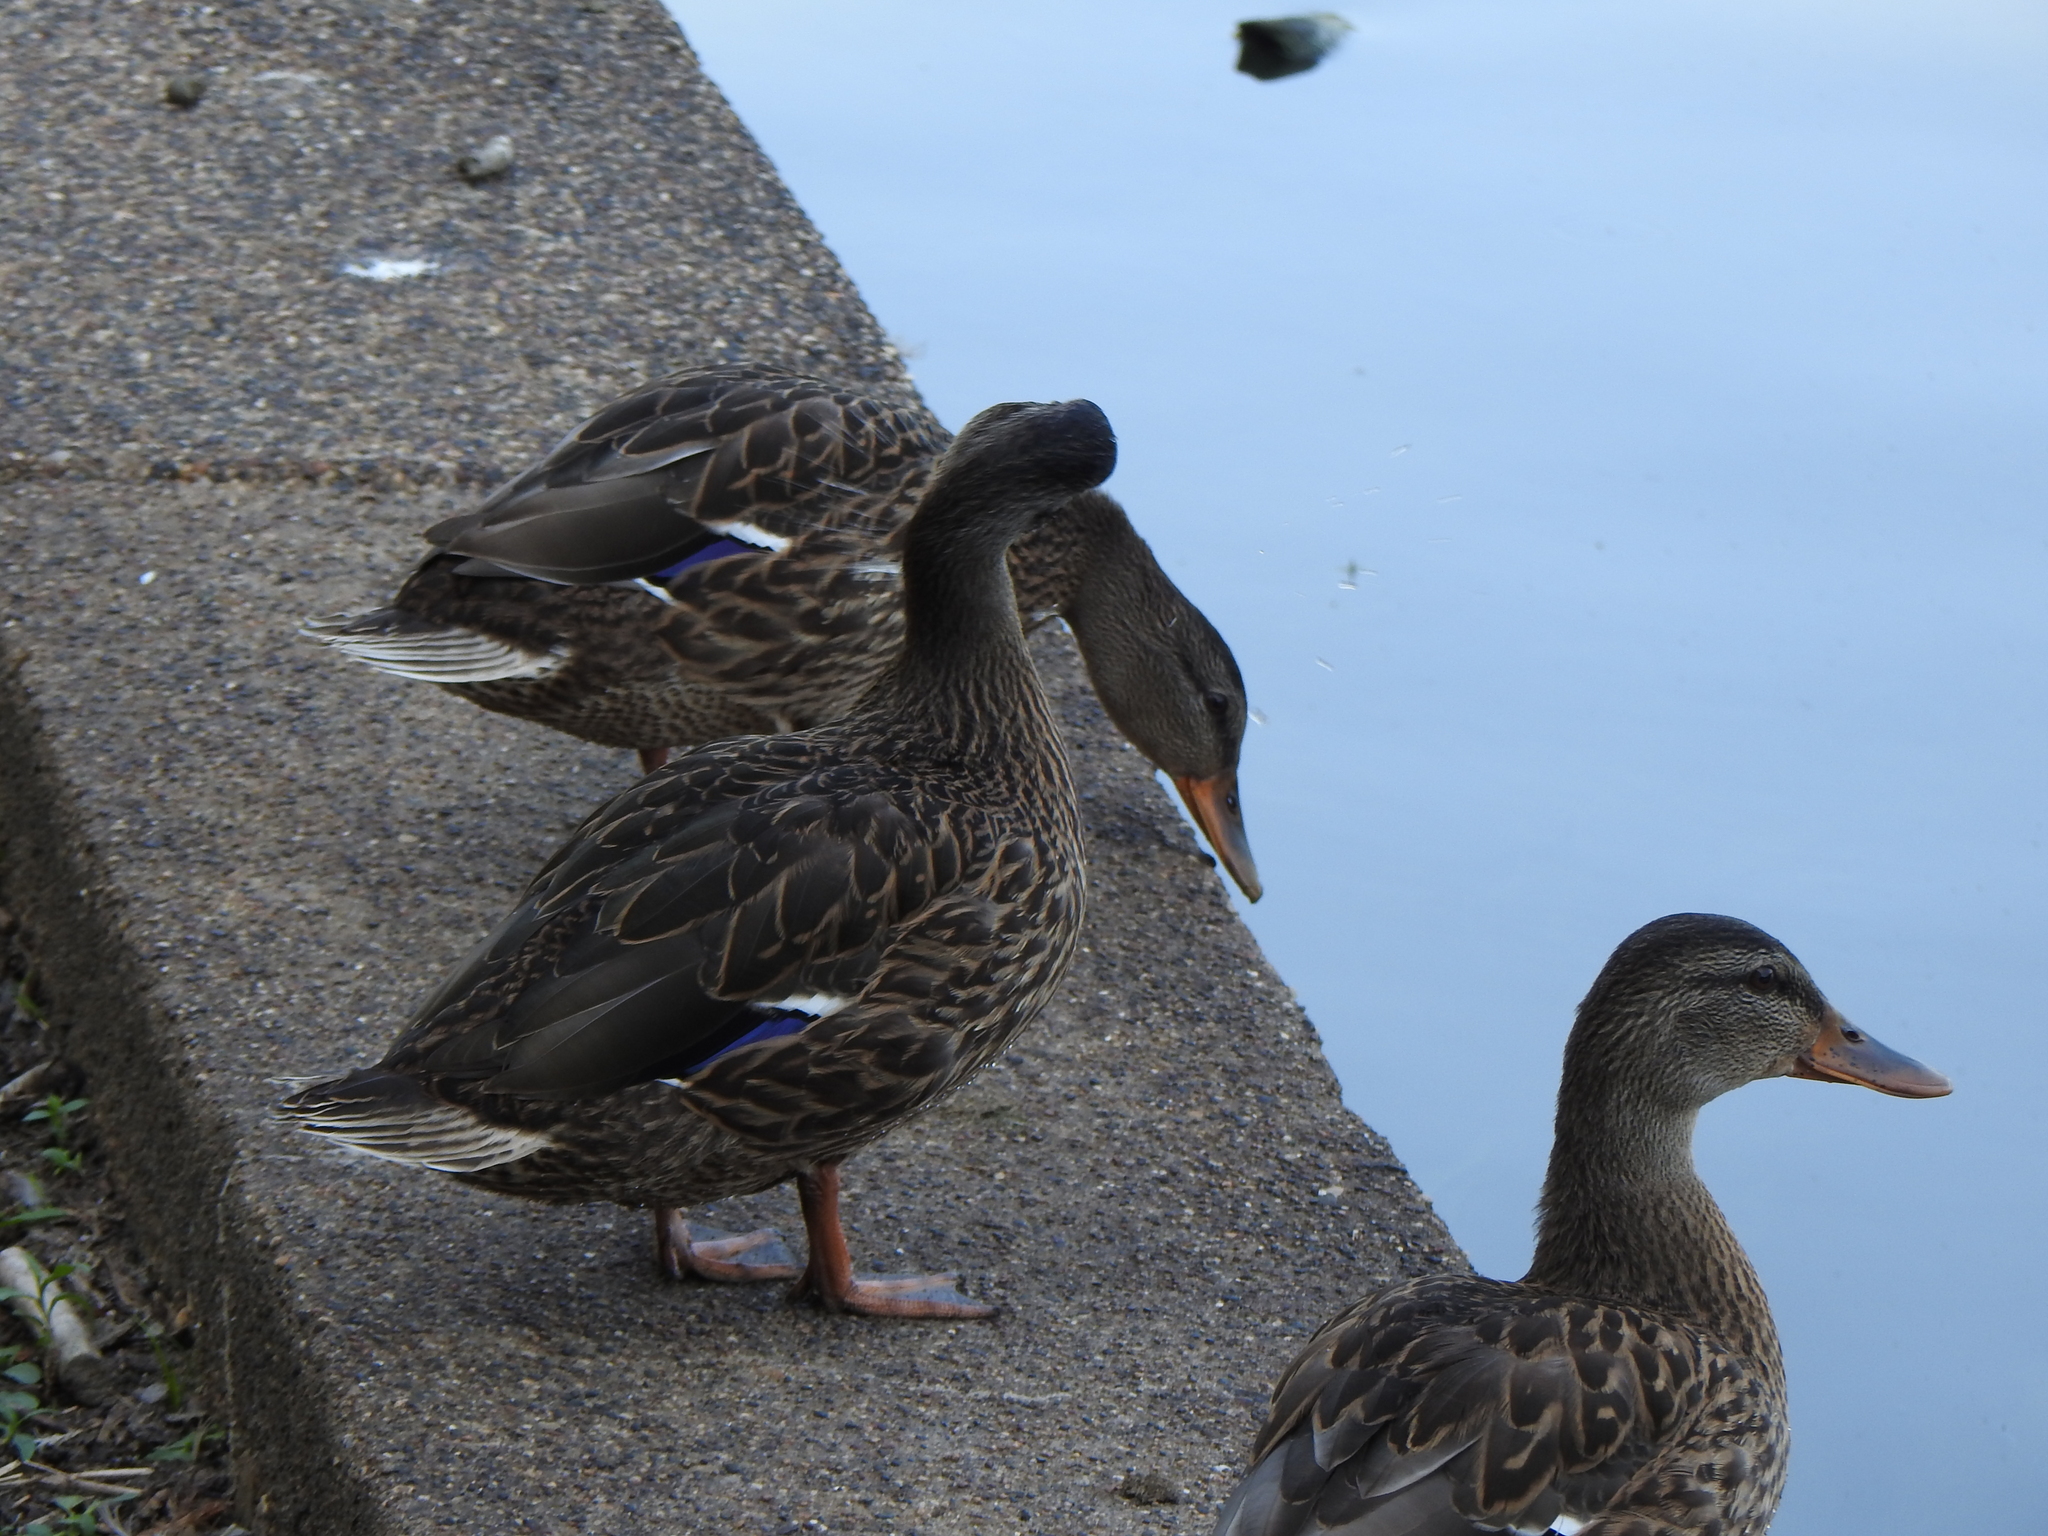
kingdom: Animalia
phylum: Chordata
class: Aves
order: Anseriformes
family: Anatidae
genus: Anas
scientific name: Anas platyrhynchos
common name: Mallard
